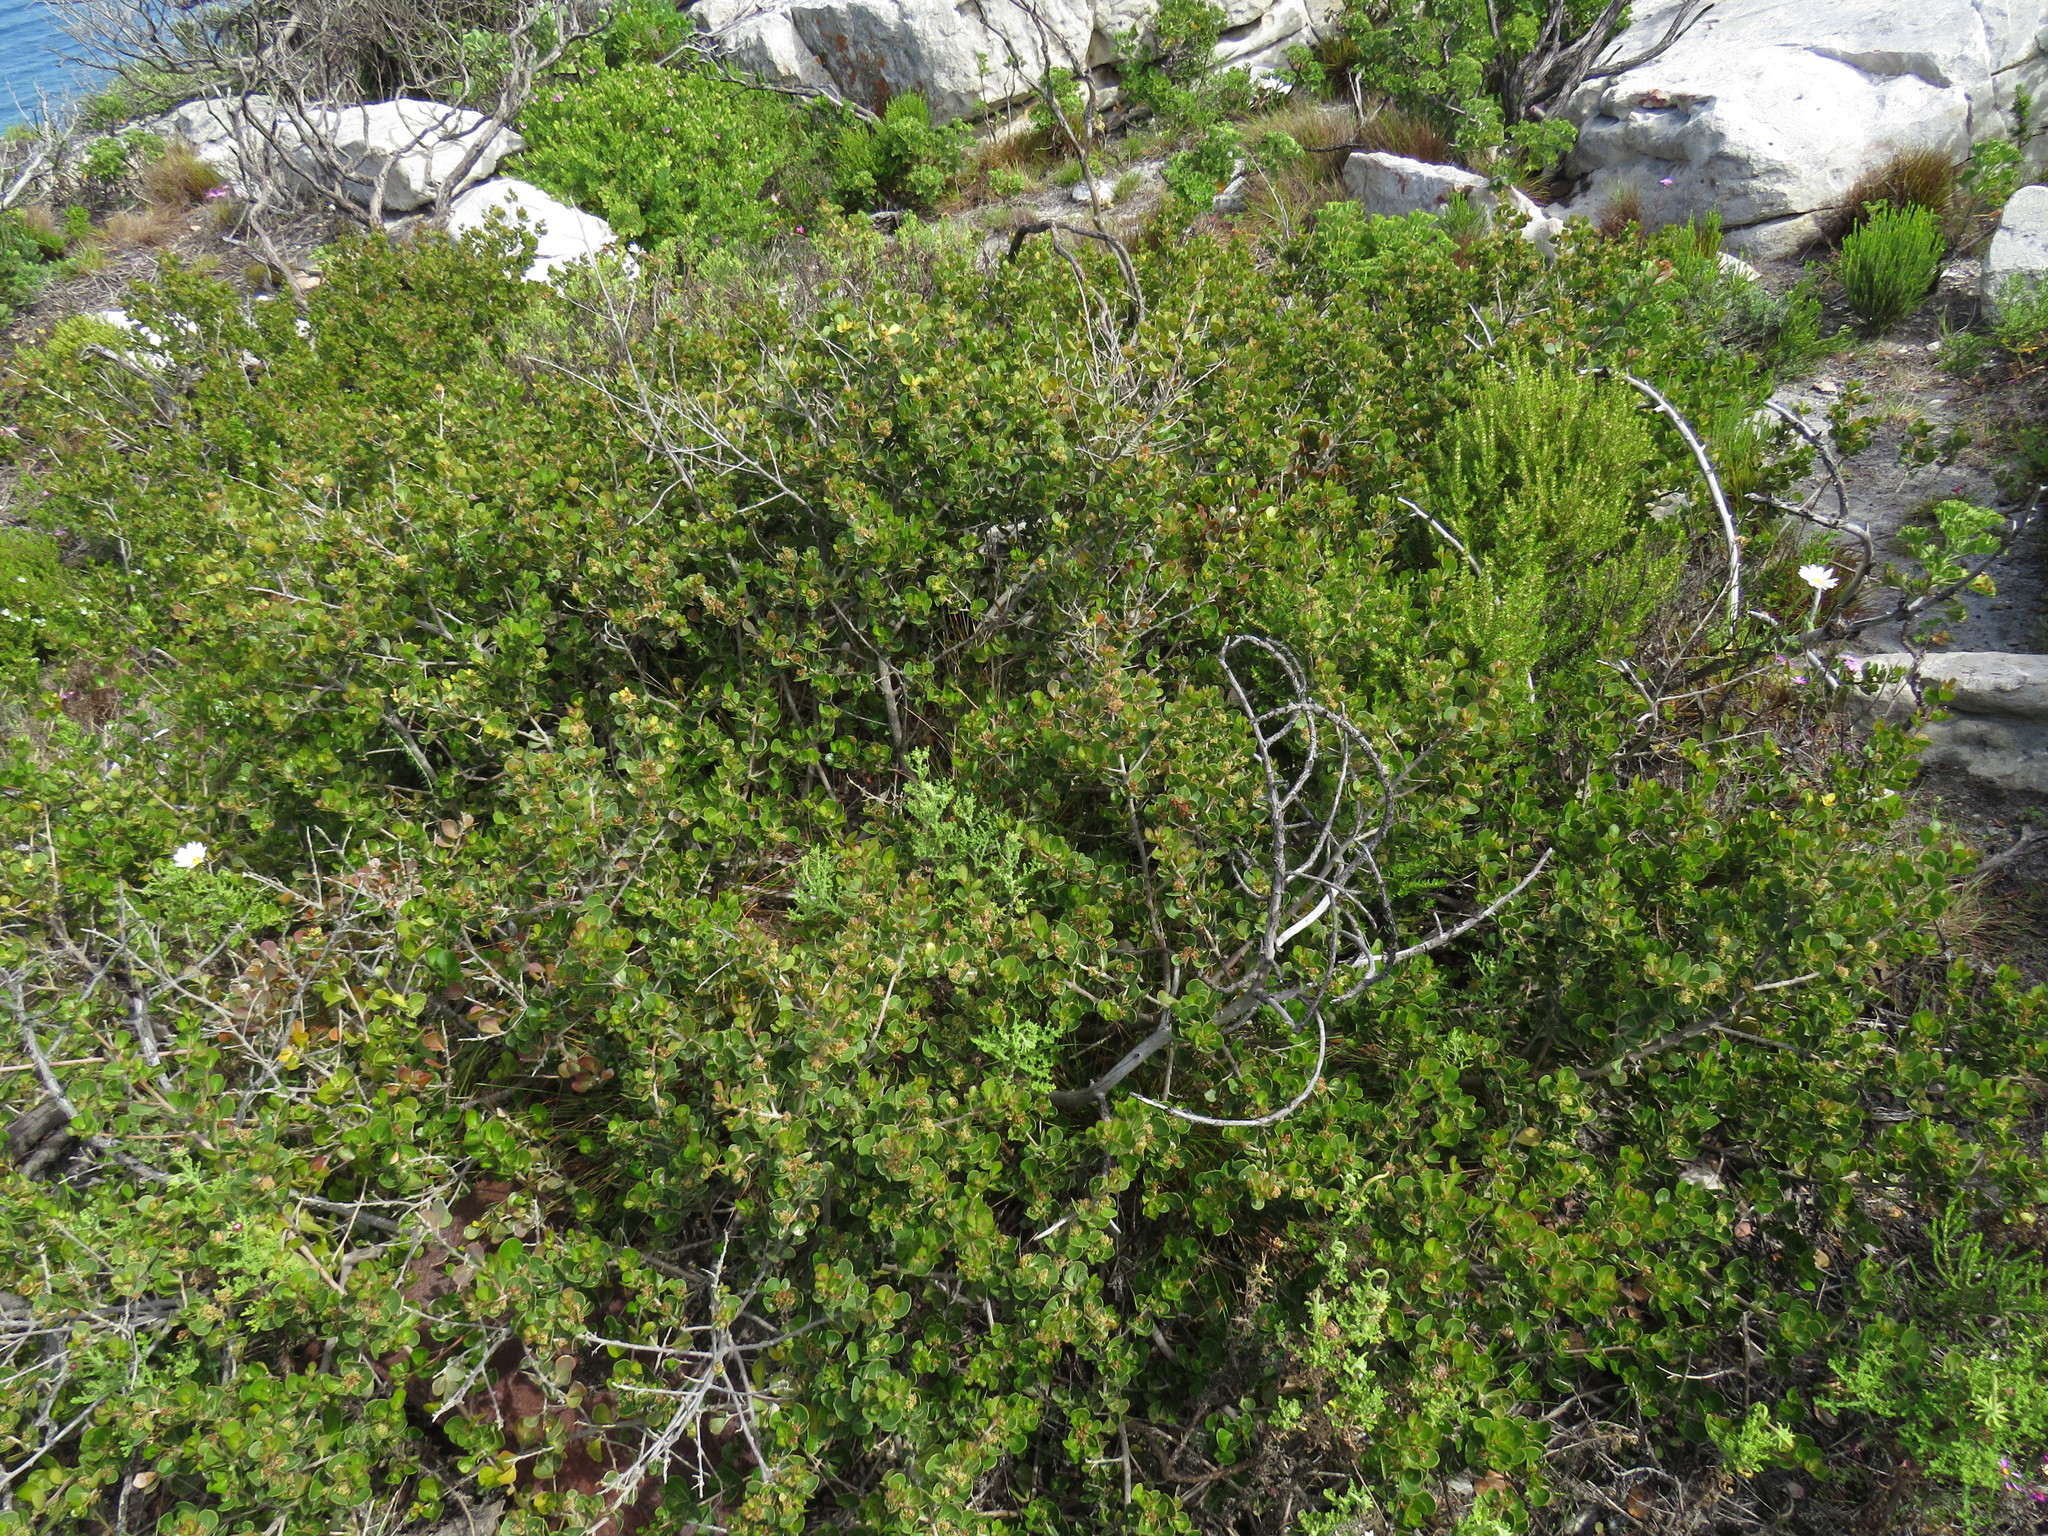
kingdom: Plantae
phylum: Tracheophyta
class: Magnoliopsida
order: Sapindales
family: Anacardiaceae
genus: Searsia
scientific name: Searsia lucida
